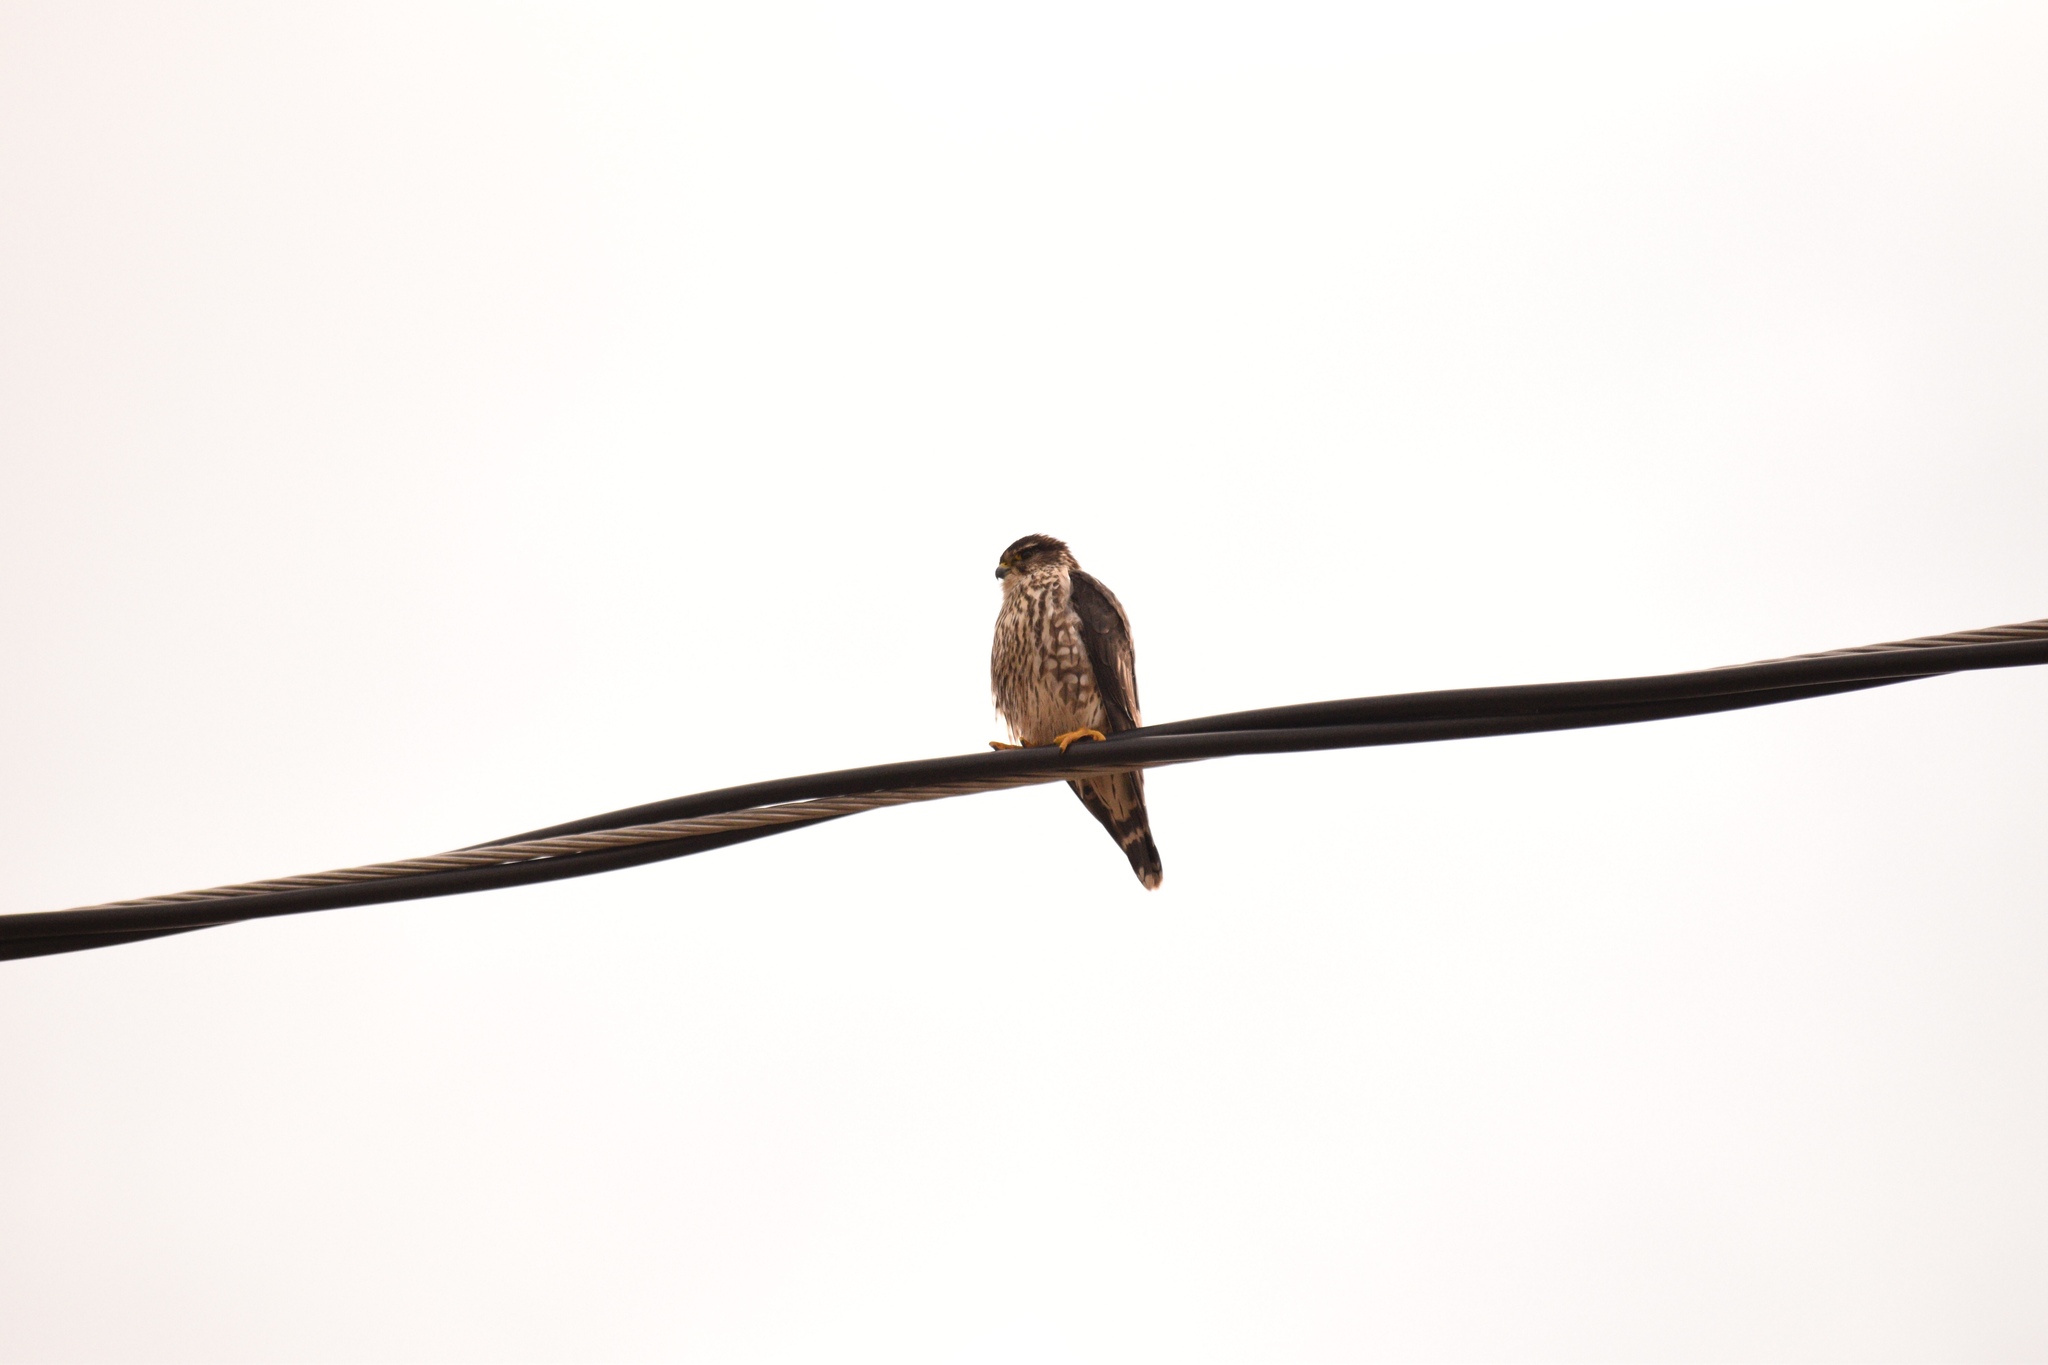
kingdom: Animalia
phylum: Chordata
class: Aves
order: Falconiformes
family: Falconidae
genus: Falco
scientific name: Falco columbarius
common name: Merlin
